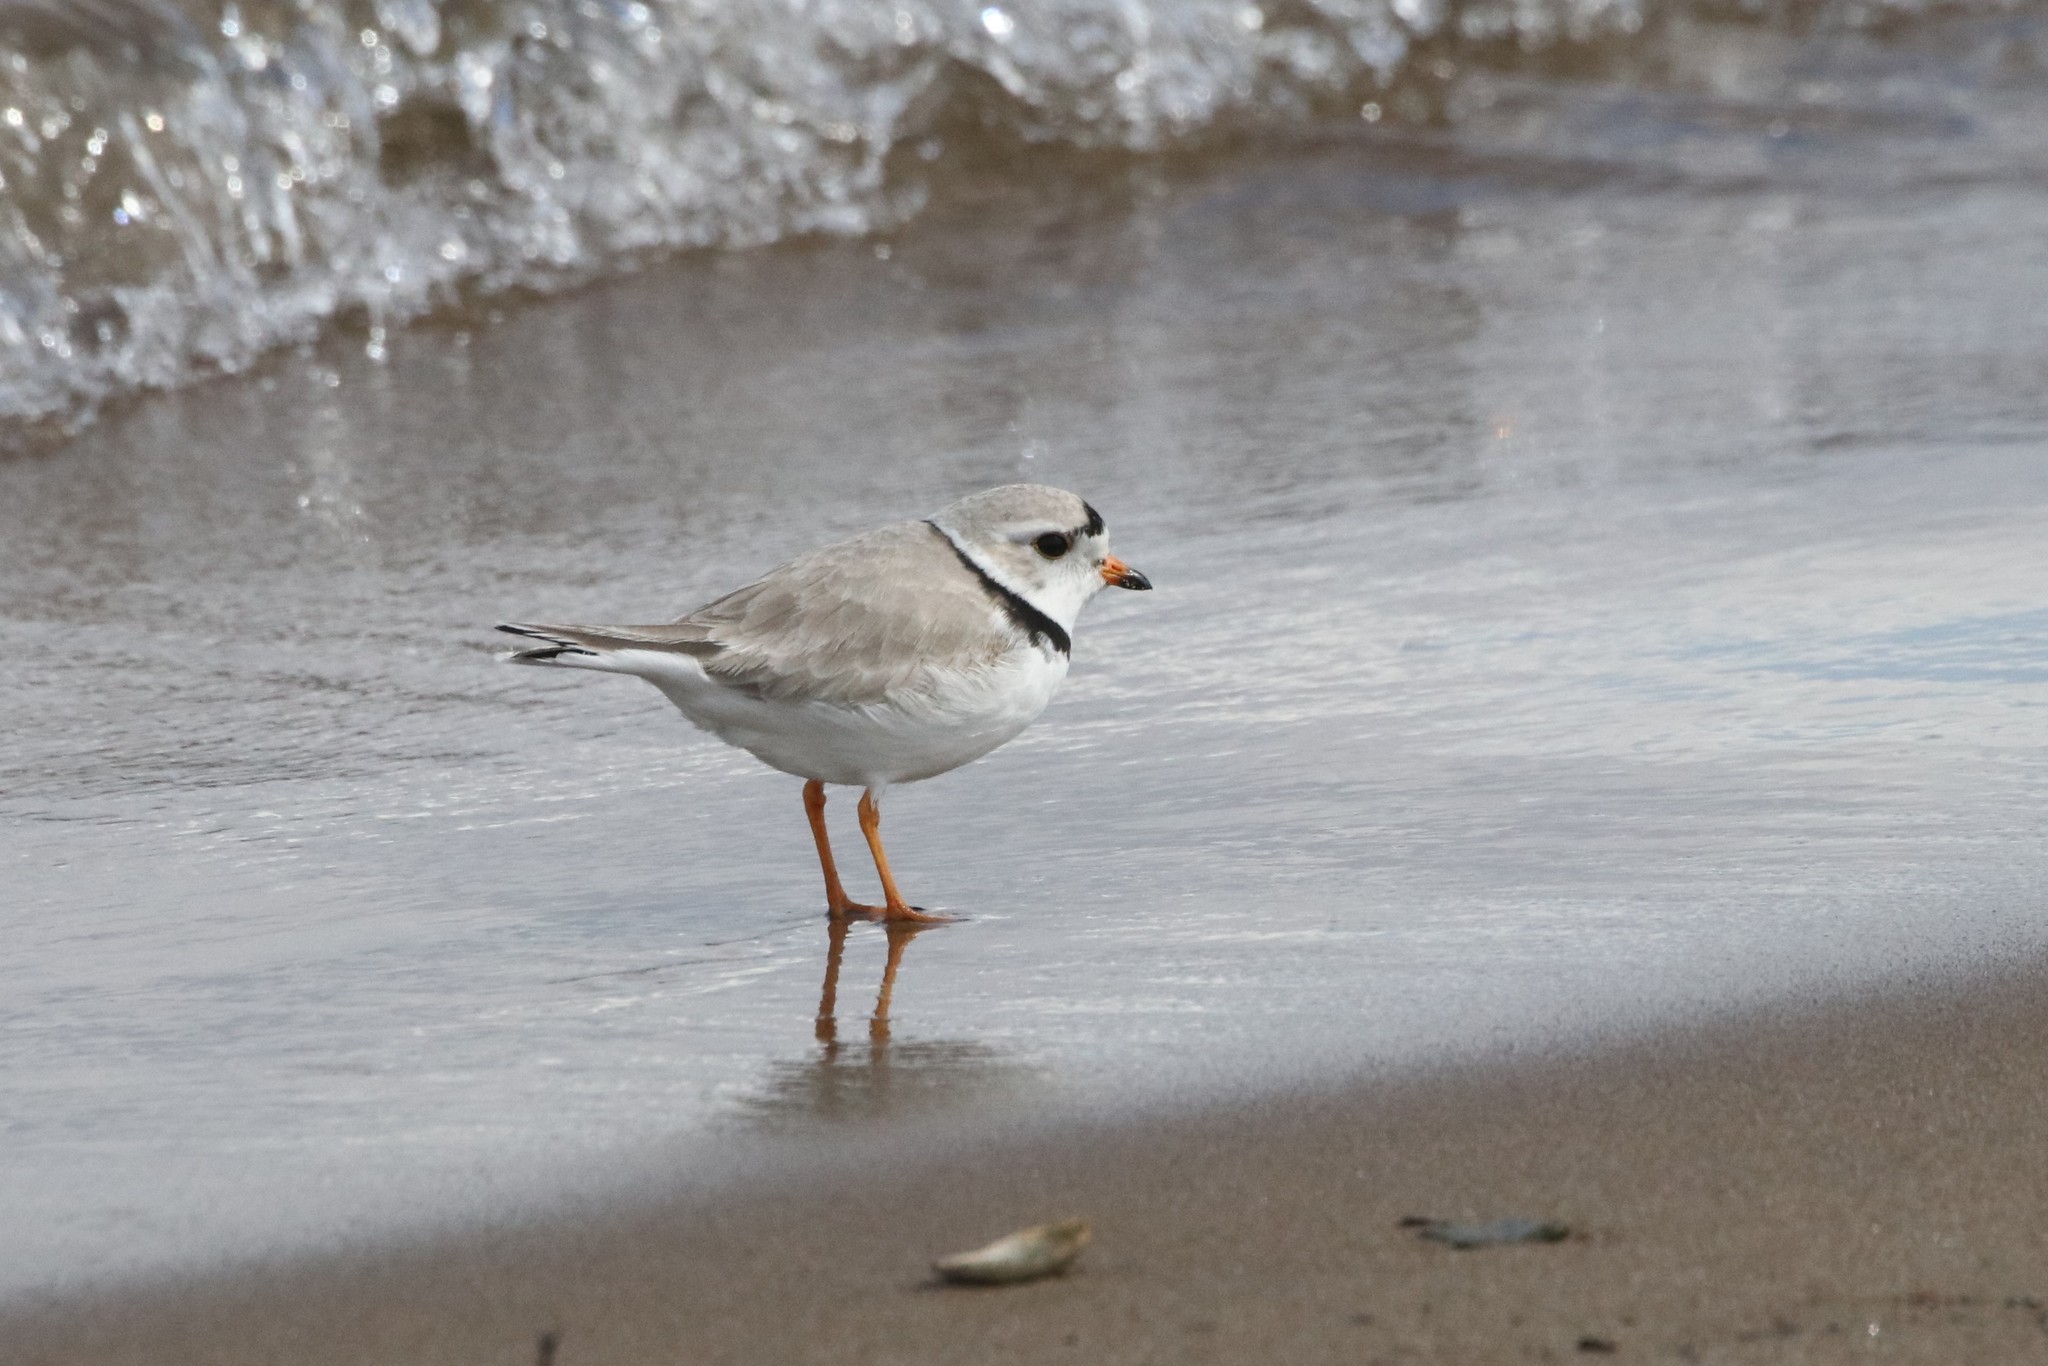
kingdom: Animalia
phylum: Chordata
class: Aves
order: Charadriiformes
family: Charadriidae
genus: Charadrius
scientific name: Charadrius melodus
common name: Piping plover
